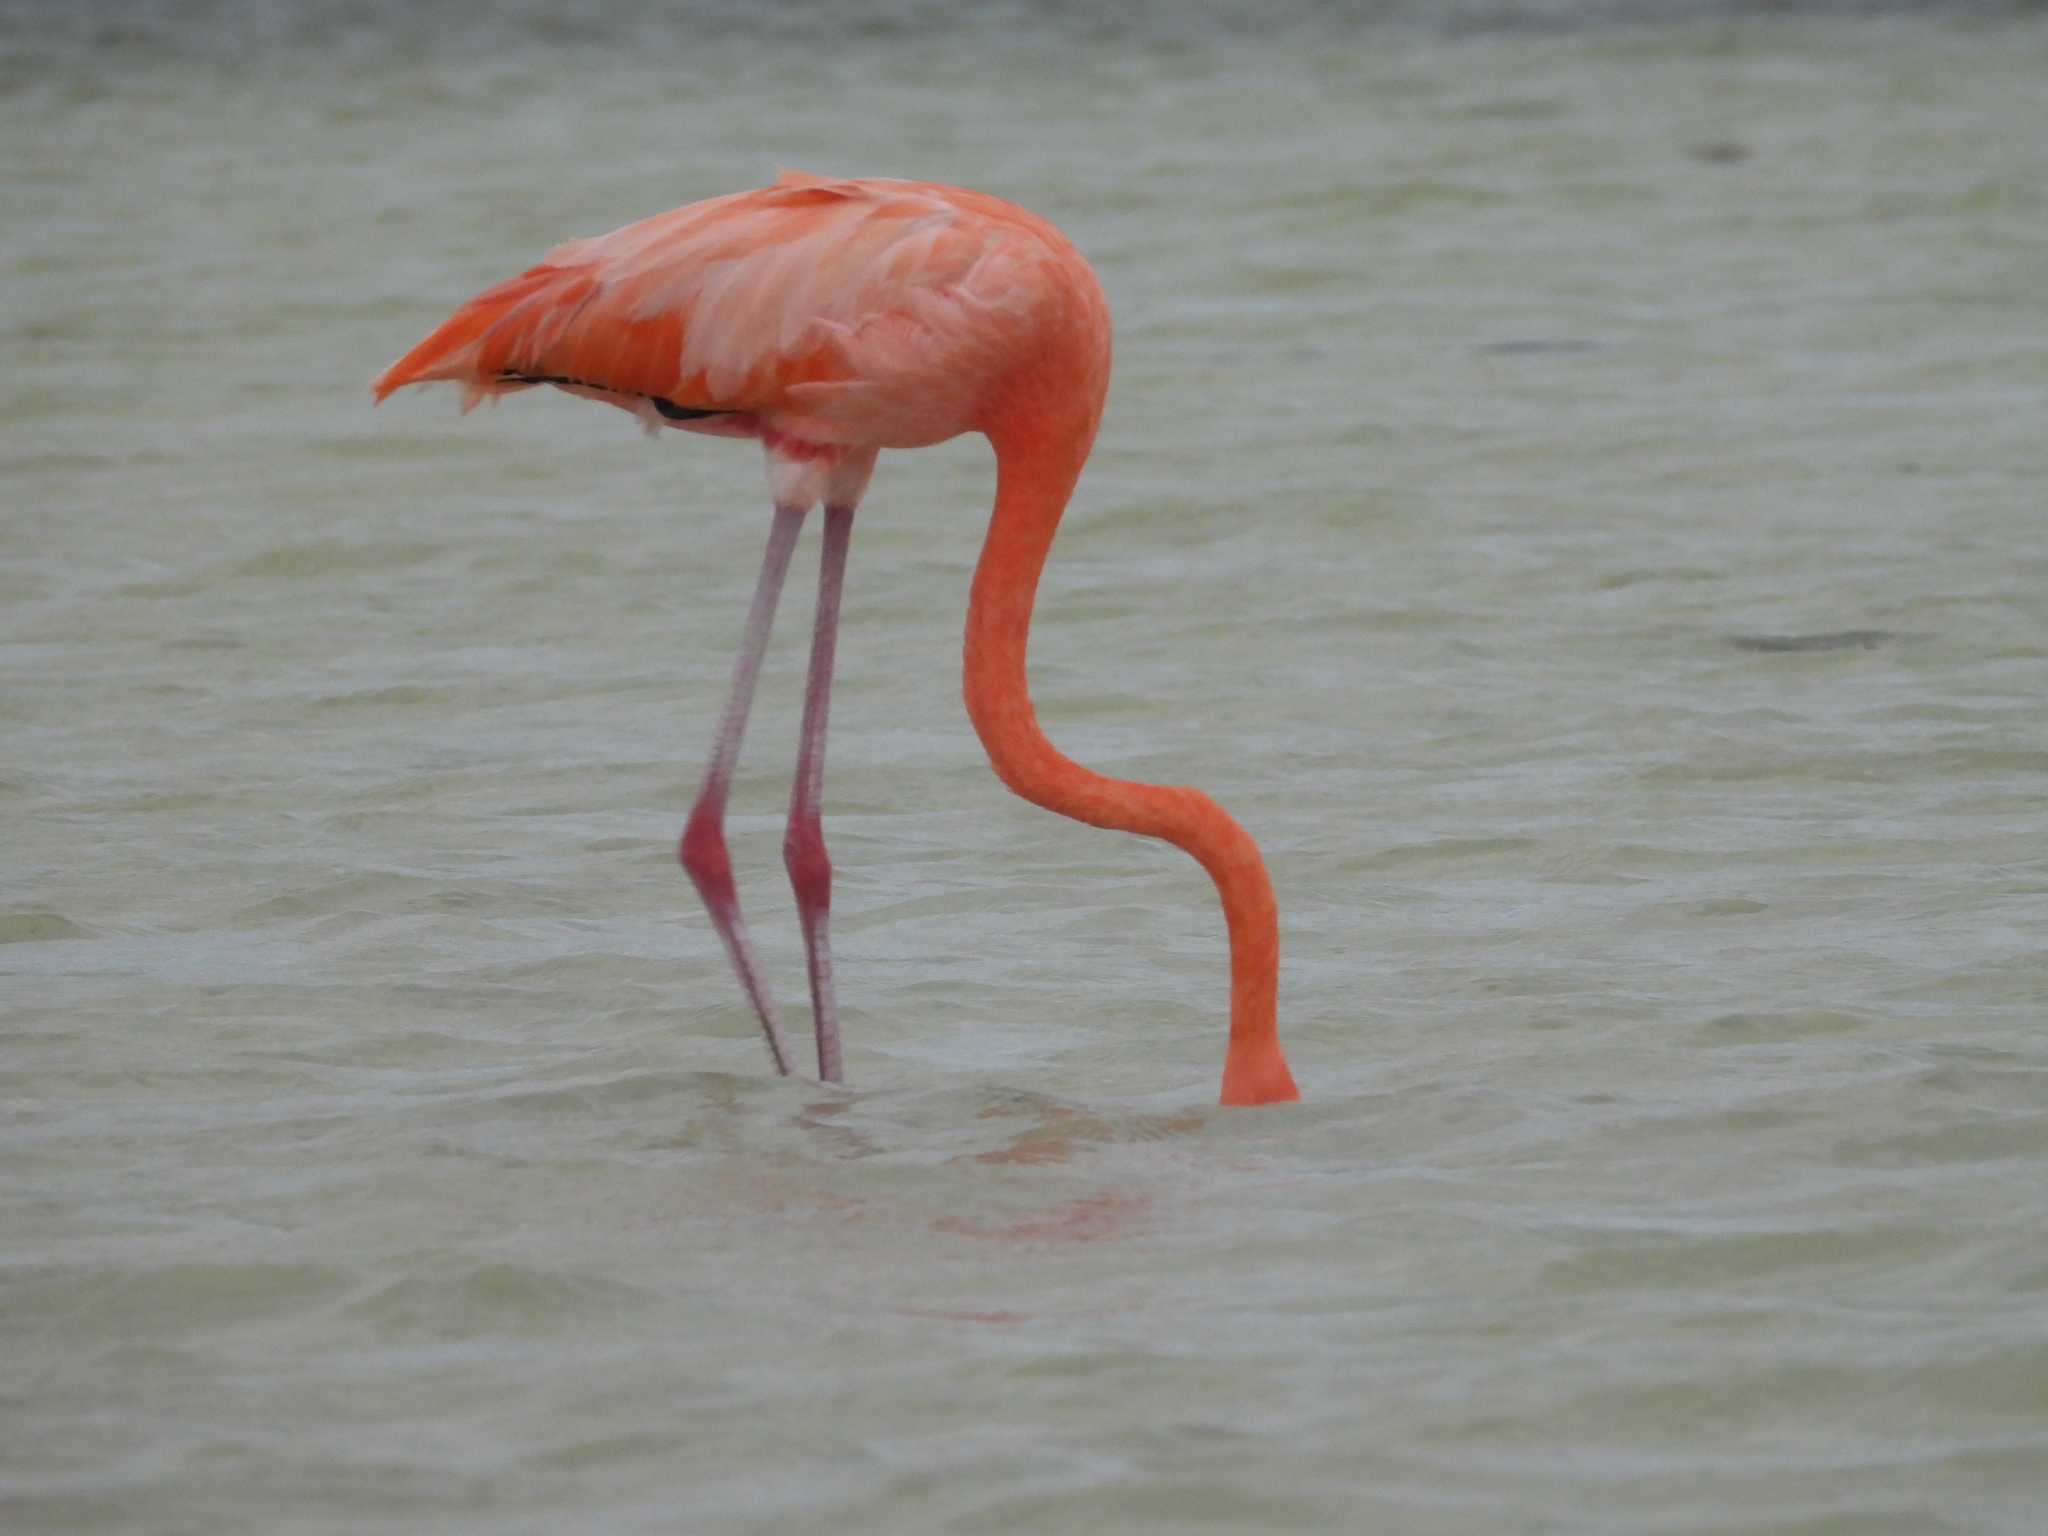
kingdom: Animalia
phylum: Chordata
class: Aves
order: Phoenicopteriformes
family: Phoenicopteridae
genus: Phoenicopterus
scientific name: Phoenicopterus ruber
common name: American flamingo
